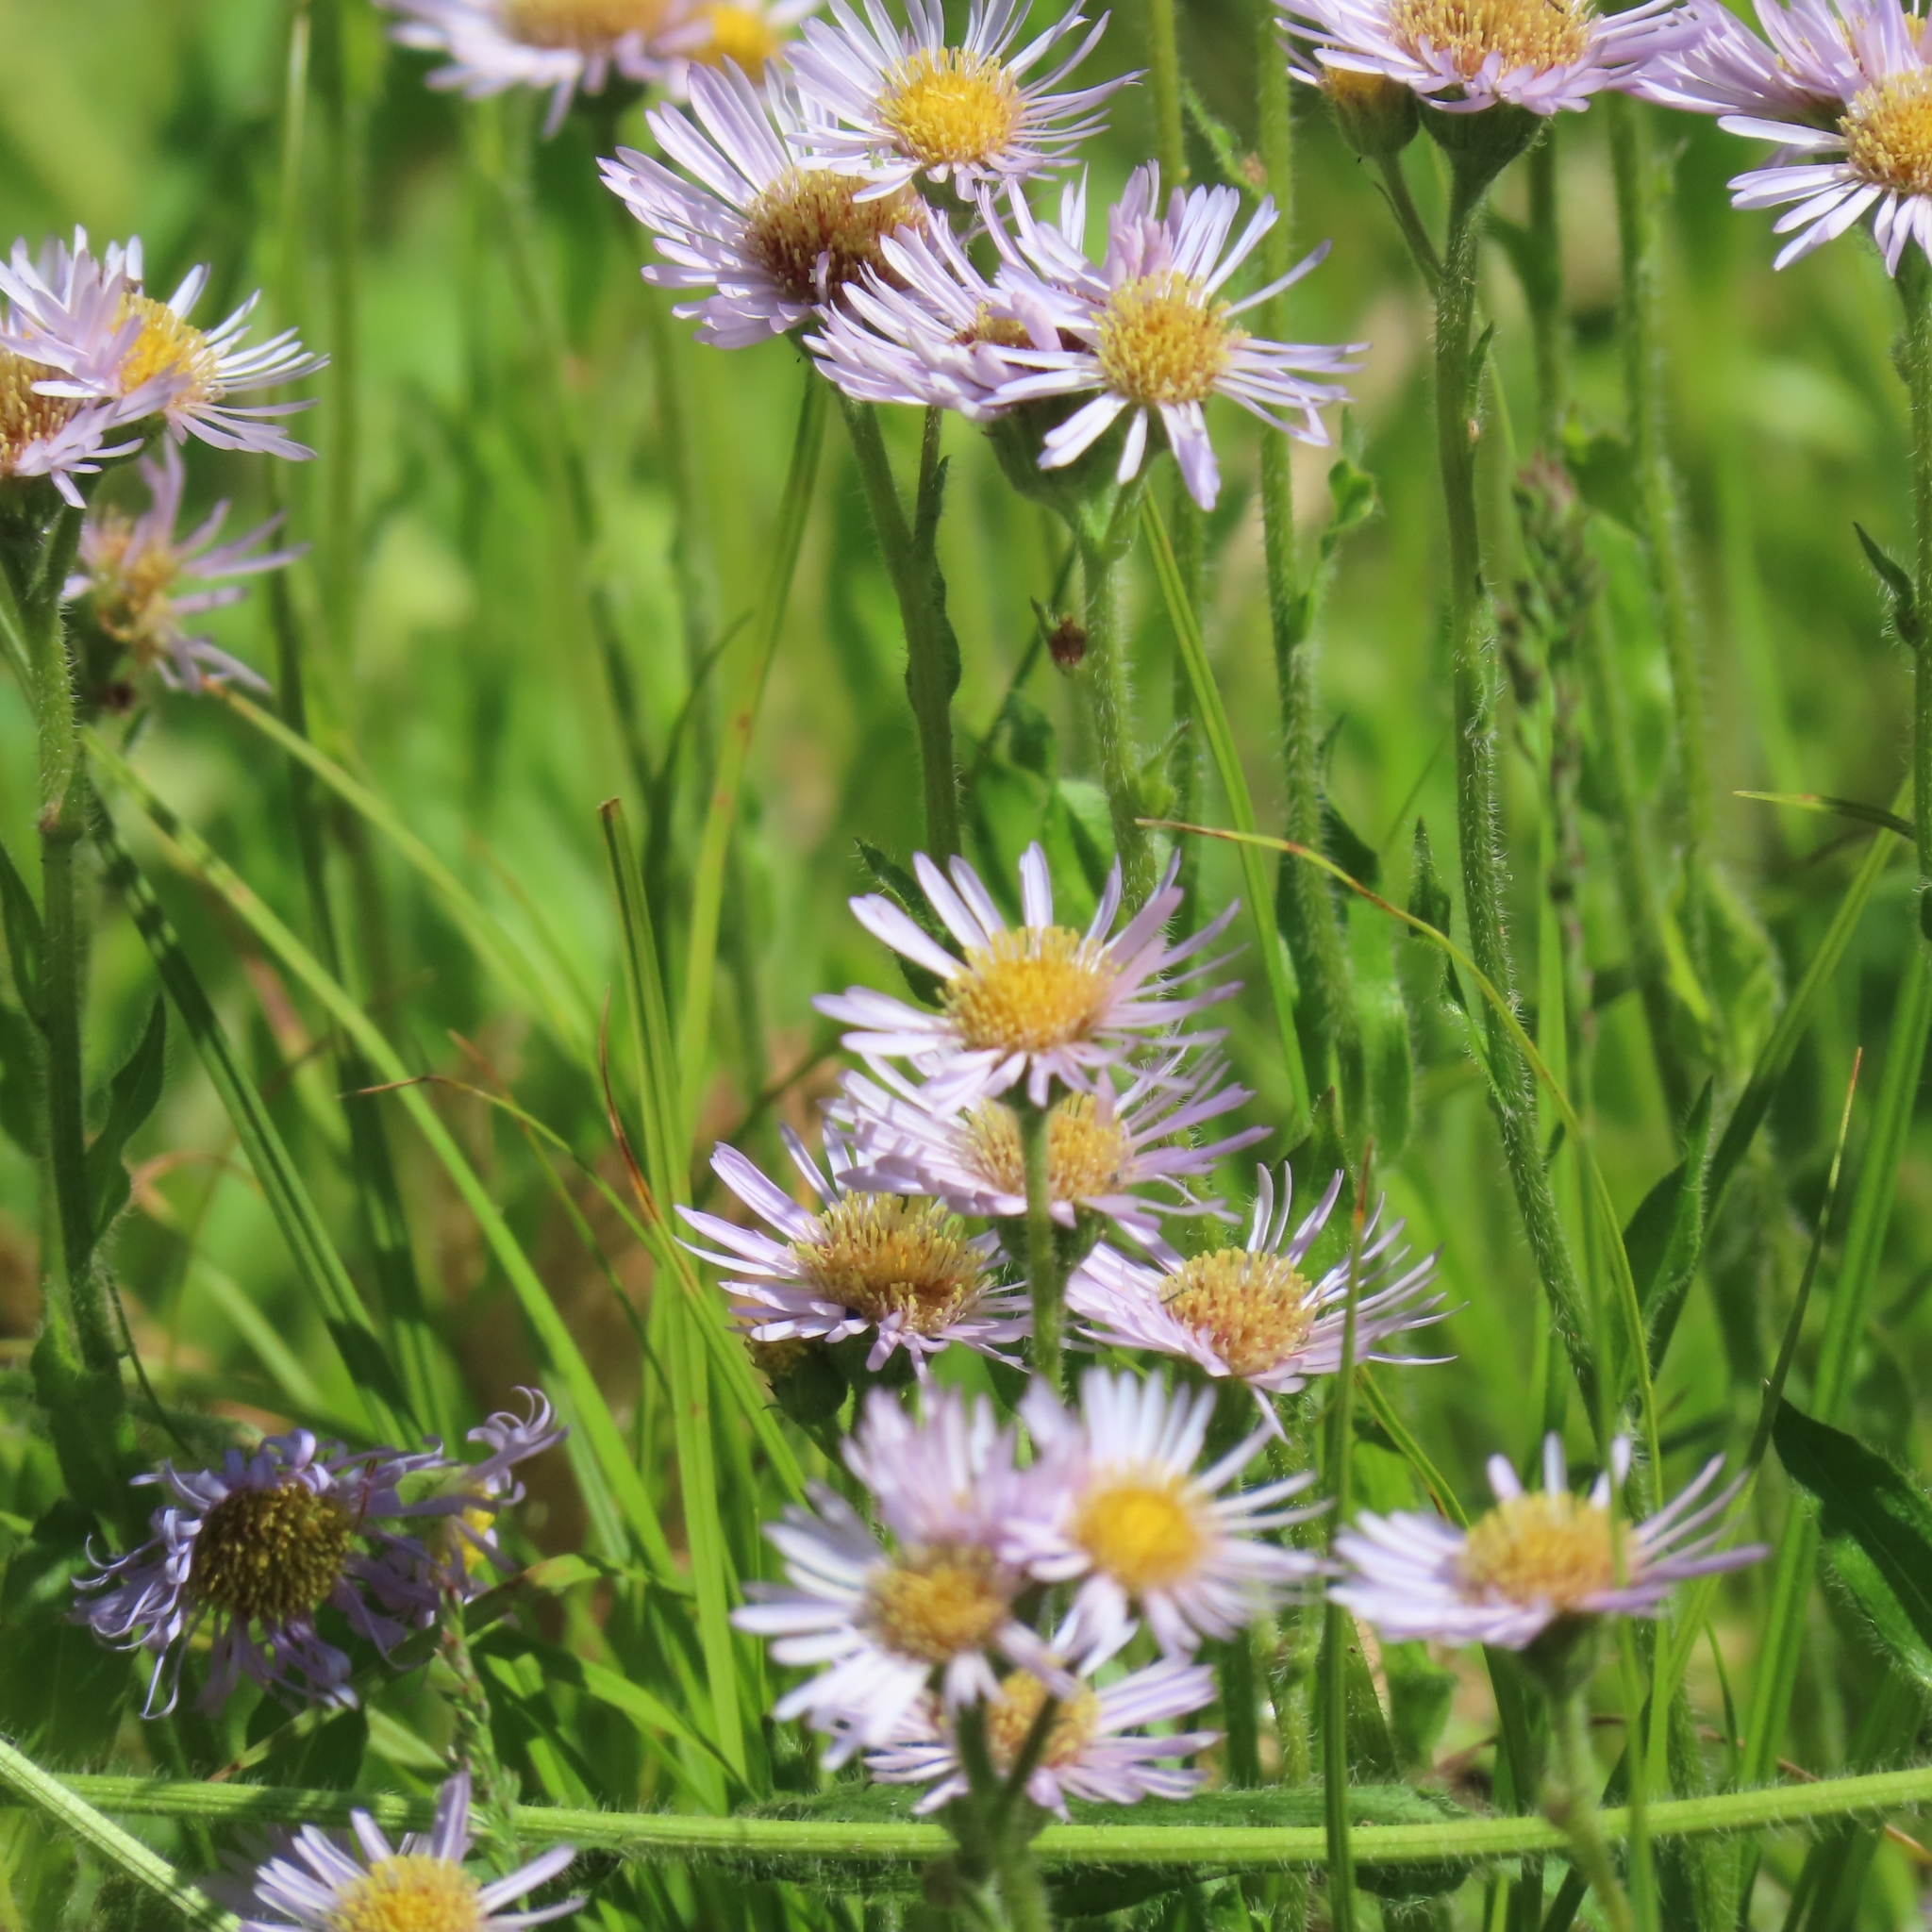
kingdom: Plantae
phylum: Tracheophyta
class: Magnoliopsida
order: Asterales
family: Asteraceae
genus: Erigeron
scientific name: Erigeron pulchellus
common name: Hairy fleabane
